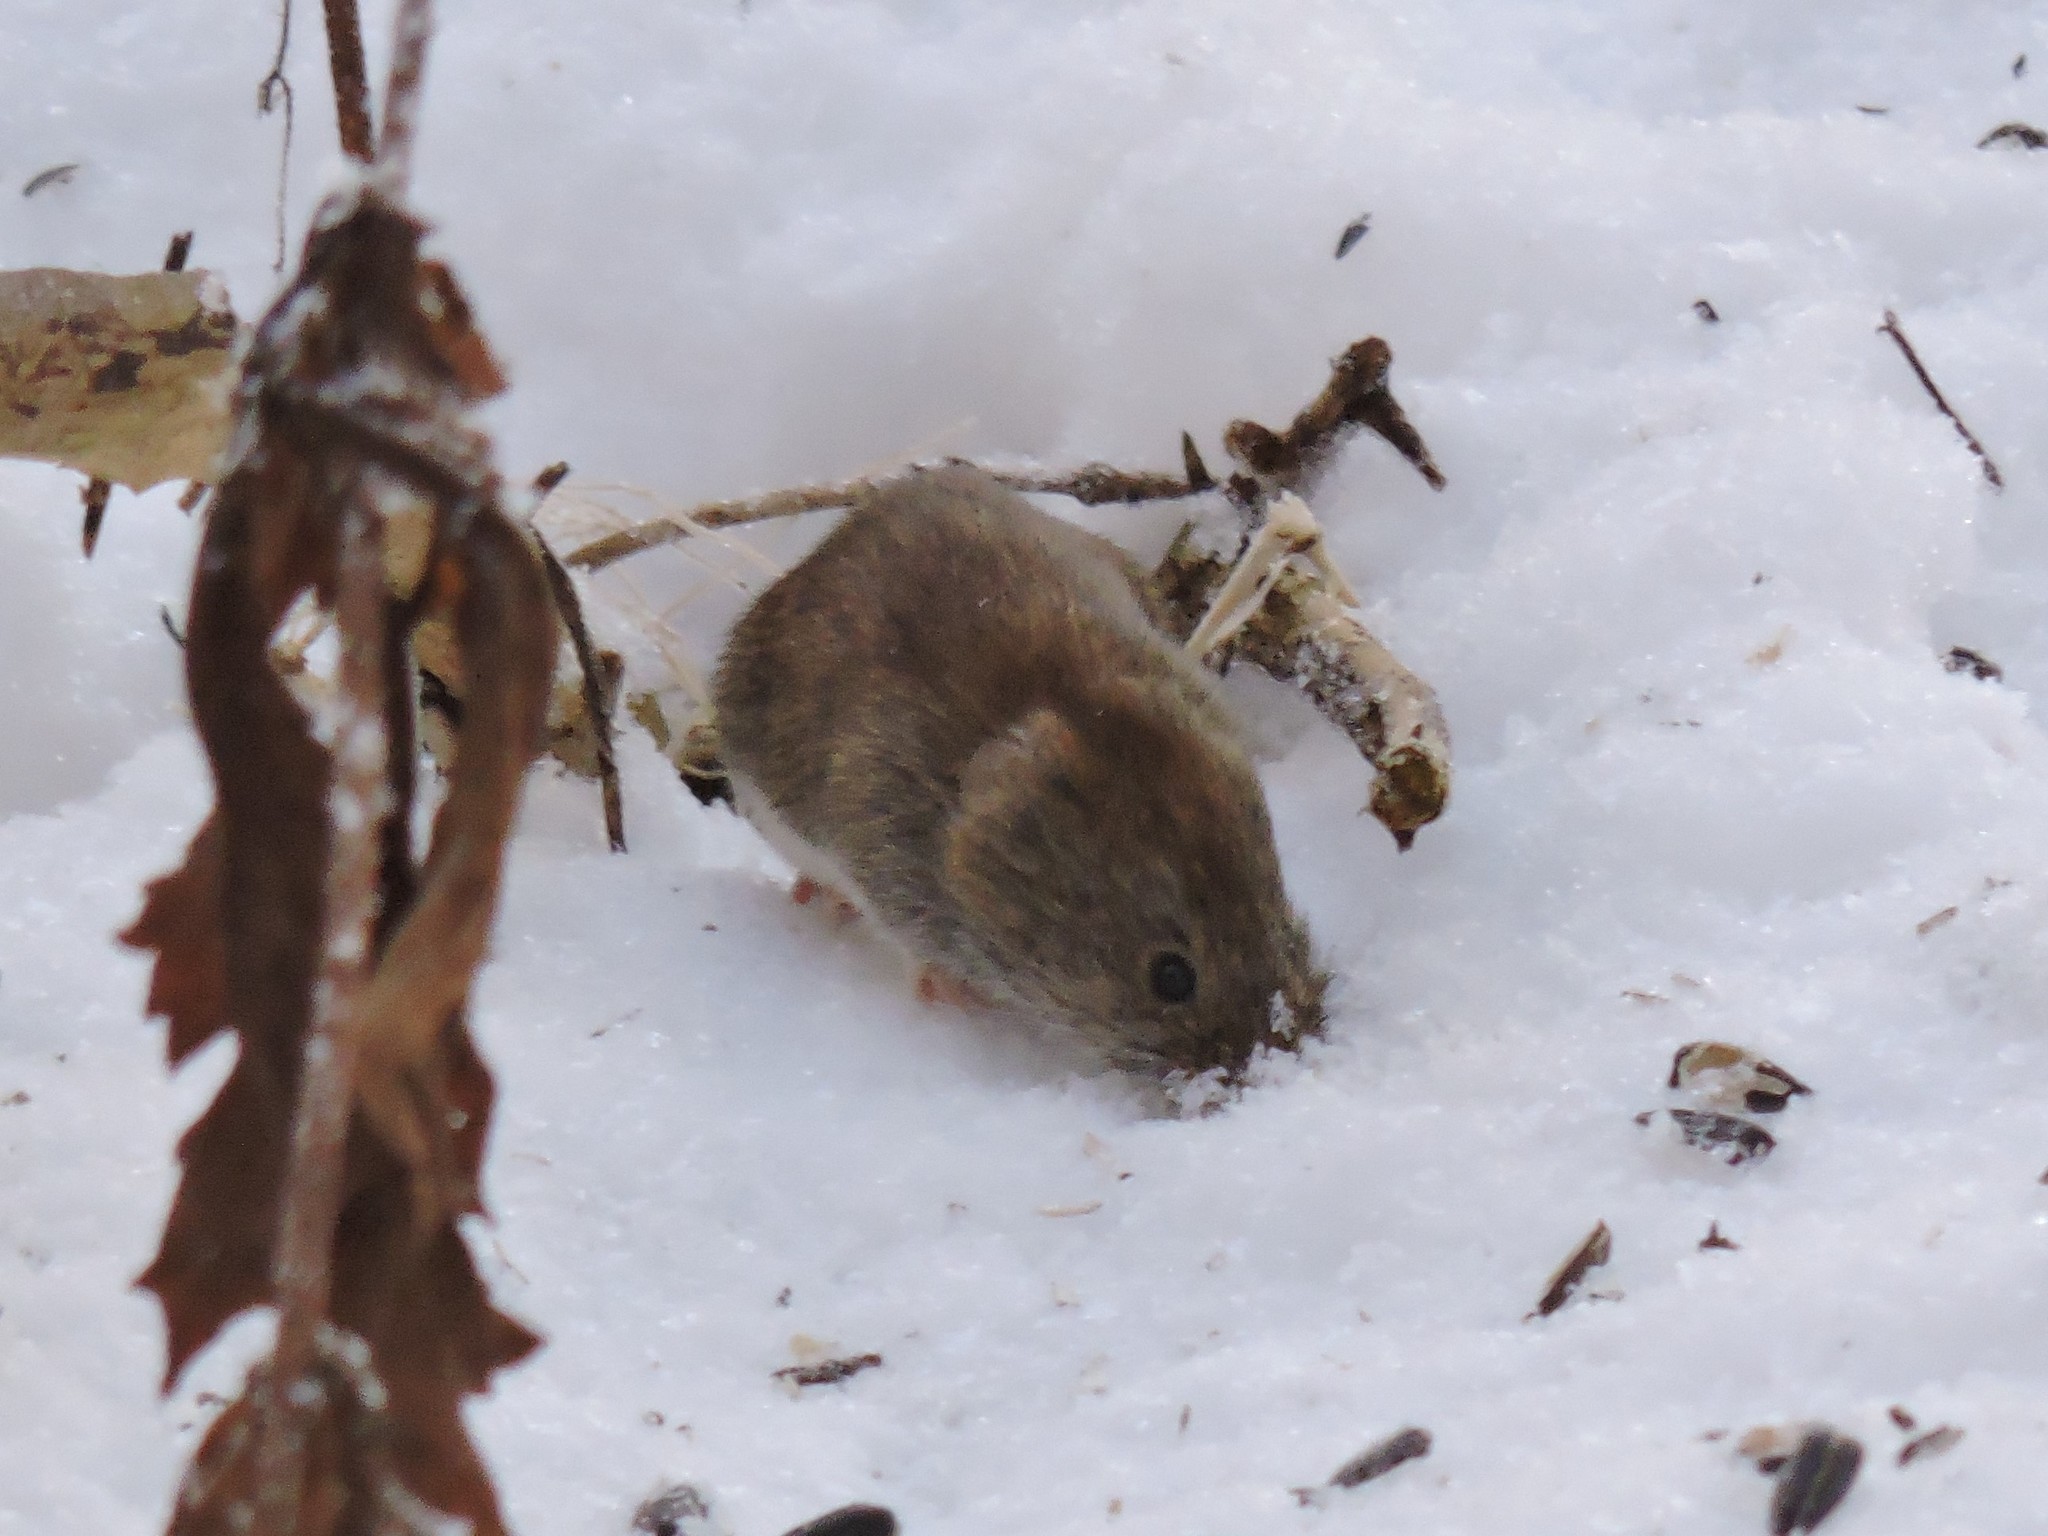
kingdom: Animalia
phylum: Chordata
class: Mammalia
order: Rodentia
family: Cricetidae
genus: Myodes
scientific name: Myodes glareolus
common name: Bank vole
